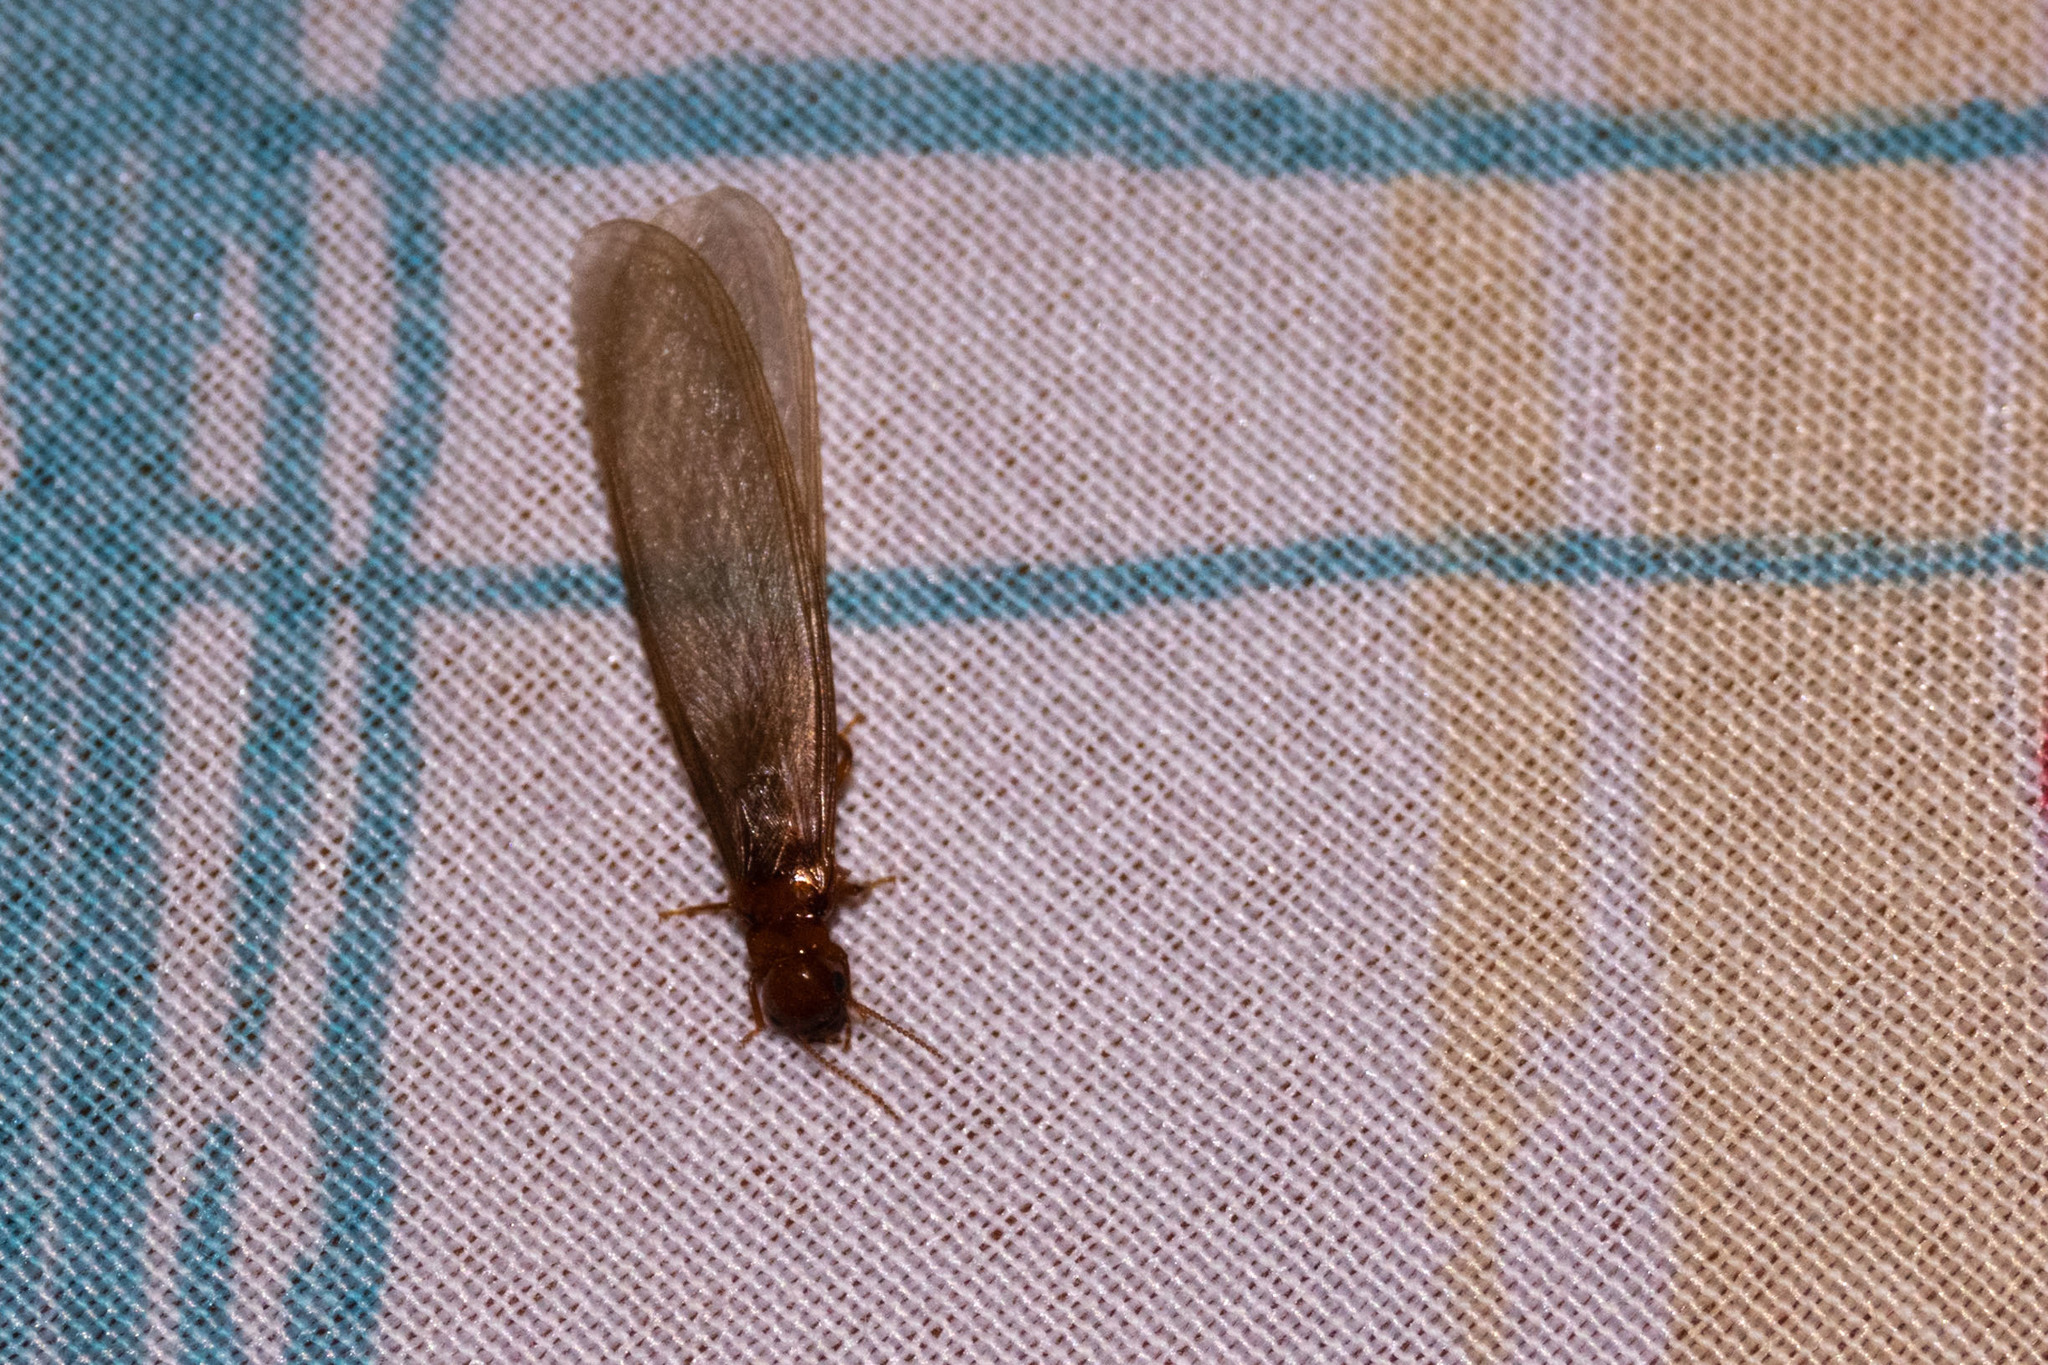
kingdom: Animalia
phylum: Arthropoda
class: Insecta
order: Blattodea
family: Stolotermitidae
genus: Porotermes
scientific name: Porotermes quadricollis
